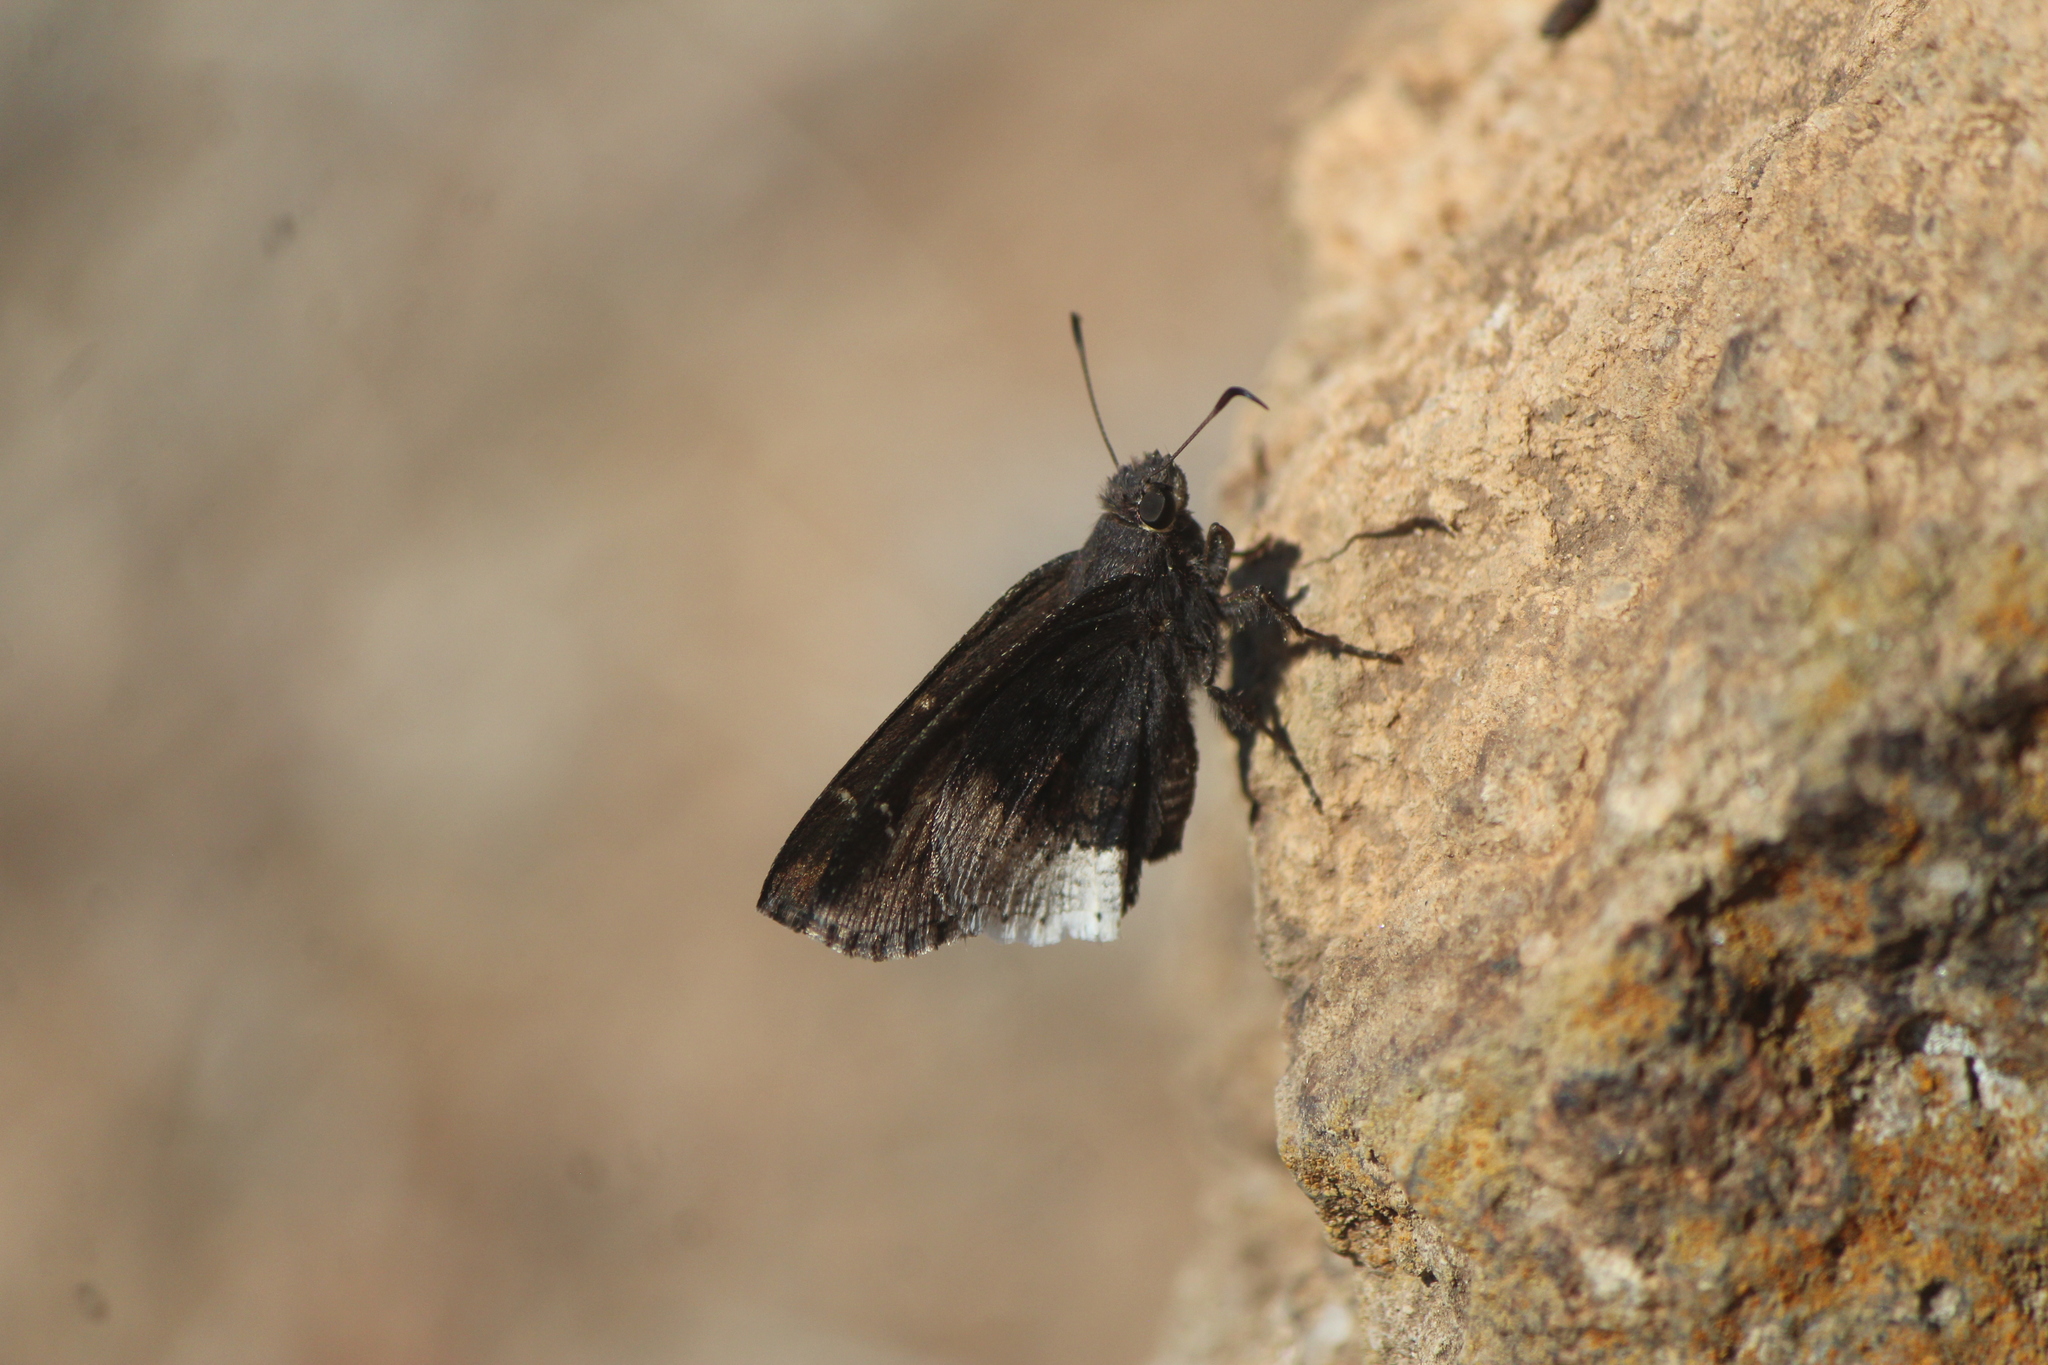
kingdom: Animalia
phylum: Arthropoda
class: Insecta
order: Lepidoptera
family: Hesperiidae
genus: Thorybes
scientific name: Thorybes
